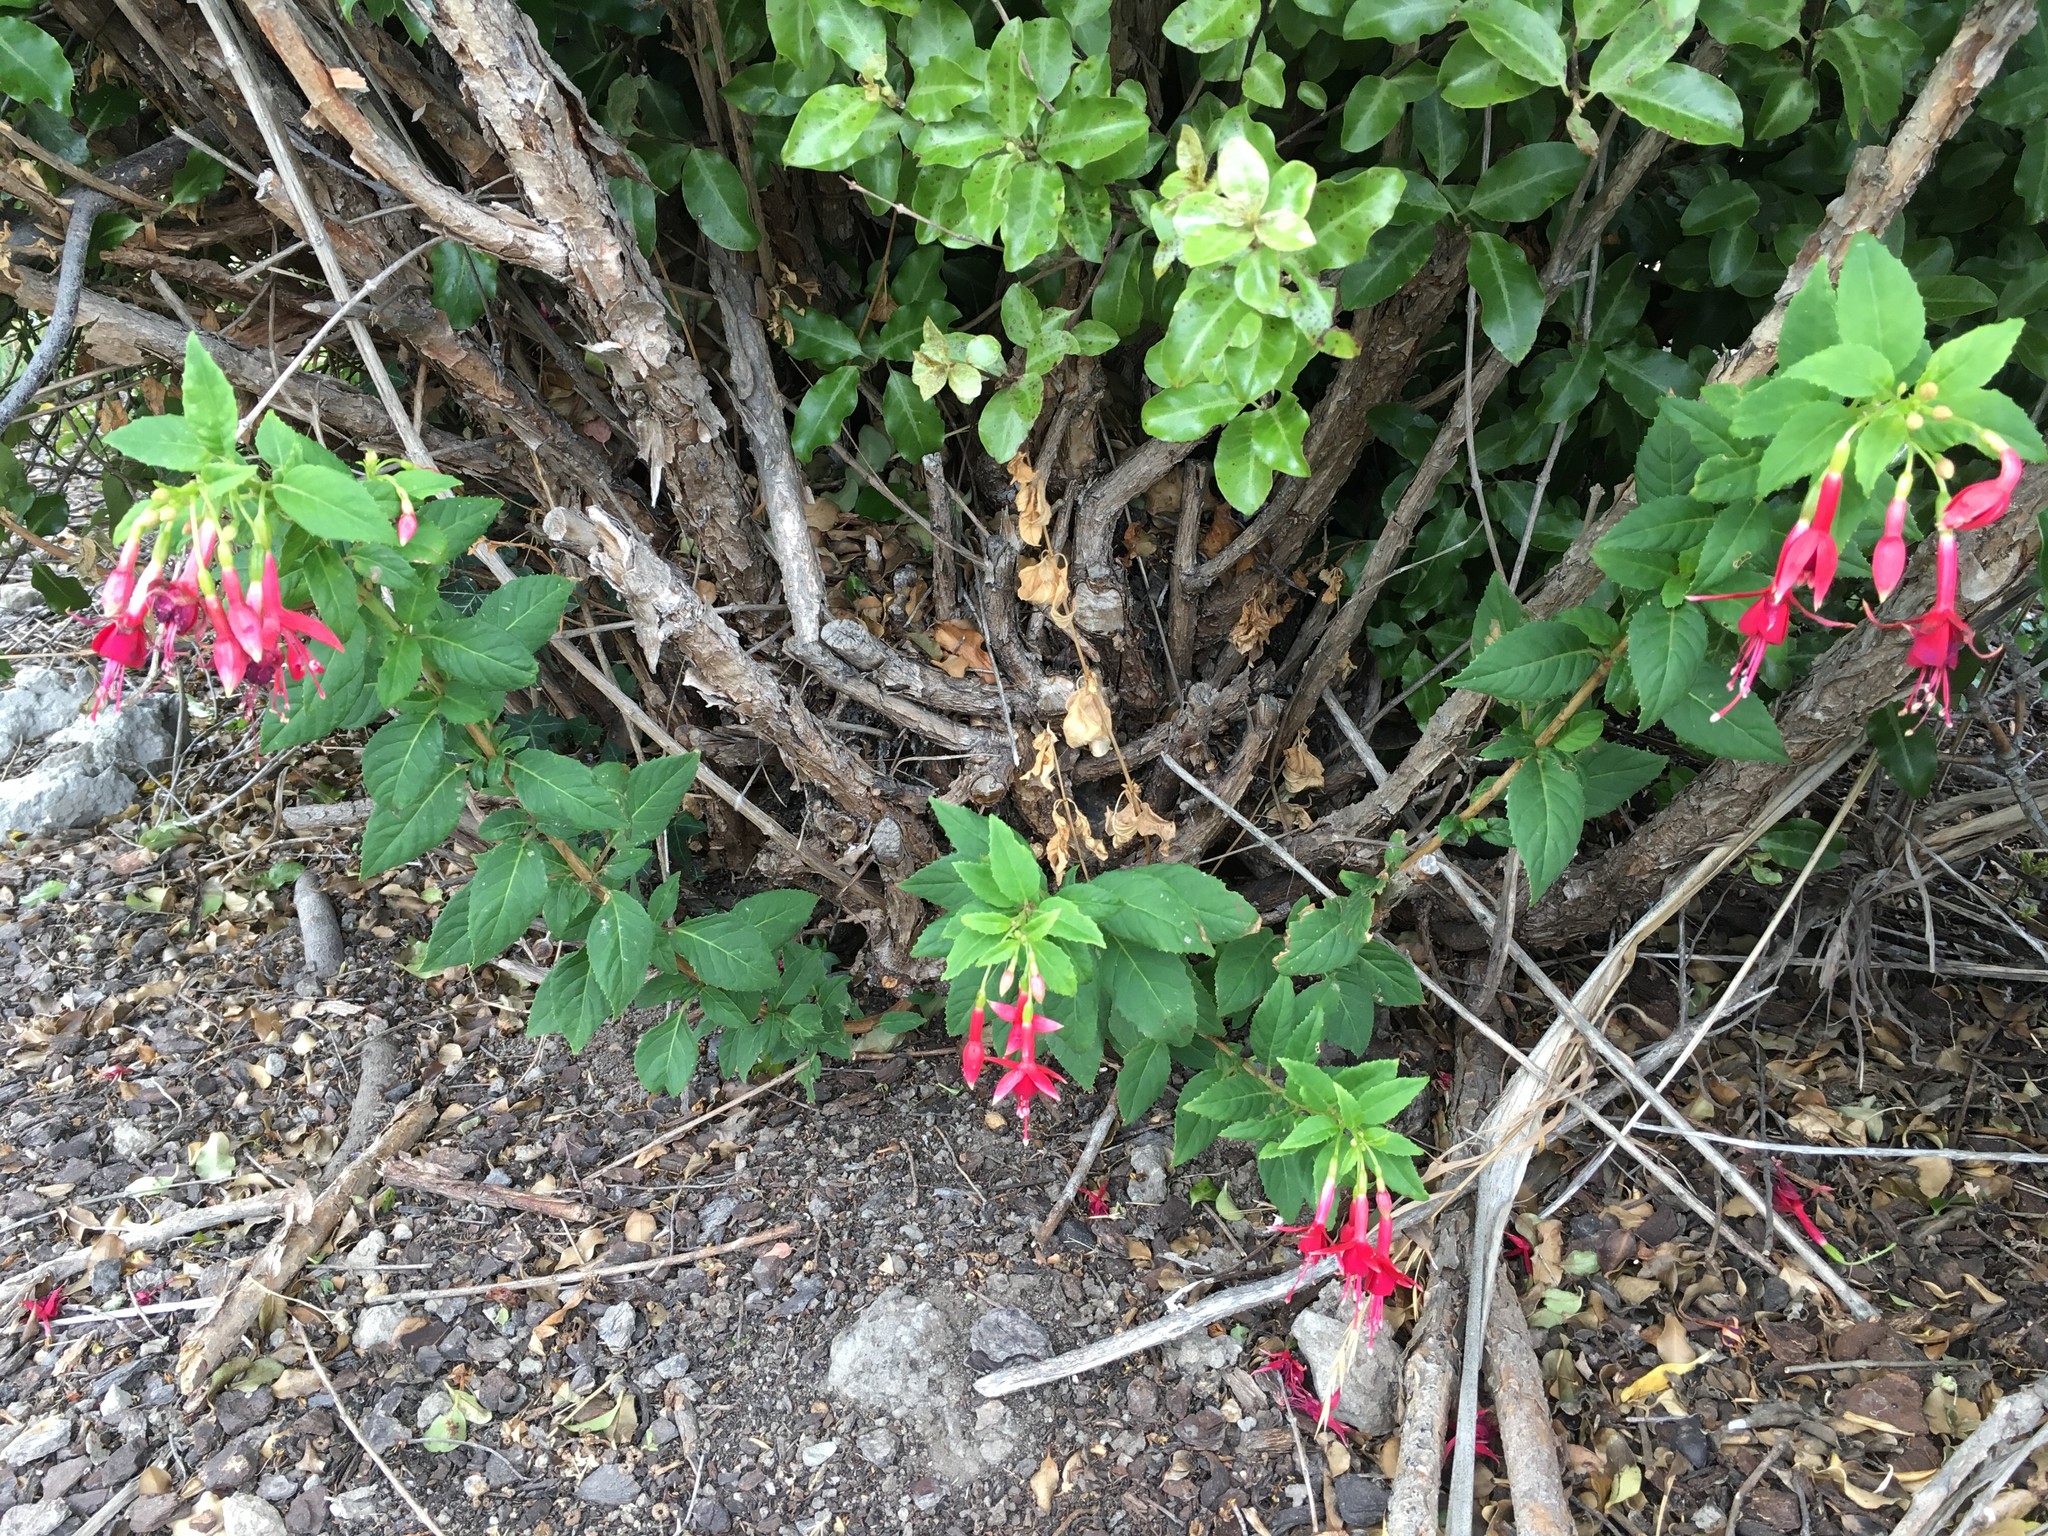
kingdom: Plantae
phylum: Tracheophyta
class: Magnoliopsida
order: Myrtales
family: Onagraceae
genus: Fuchsia
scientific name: Fuchsia magellanica
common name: Hardy fuchsia
